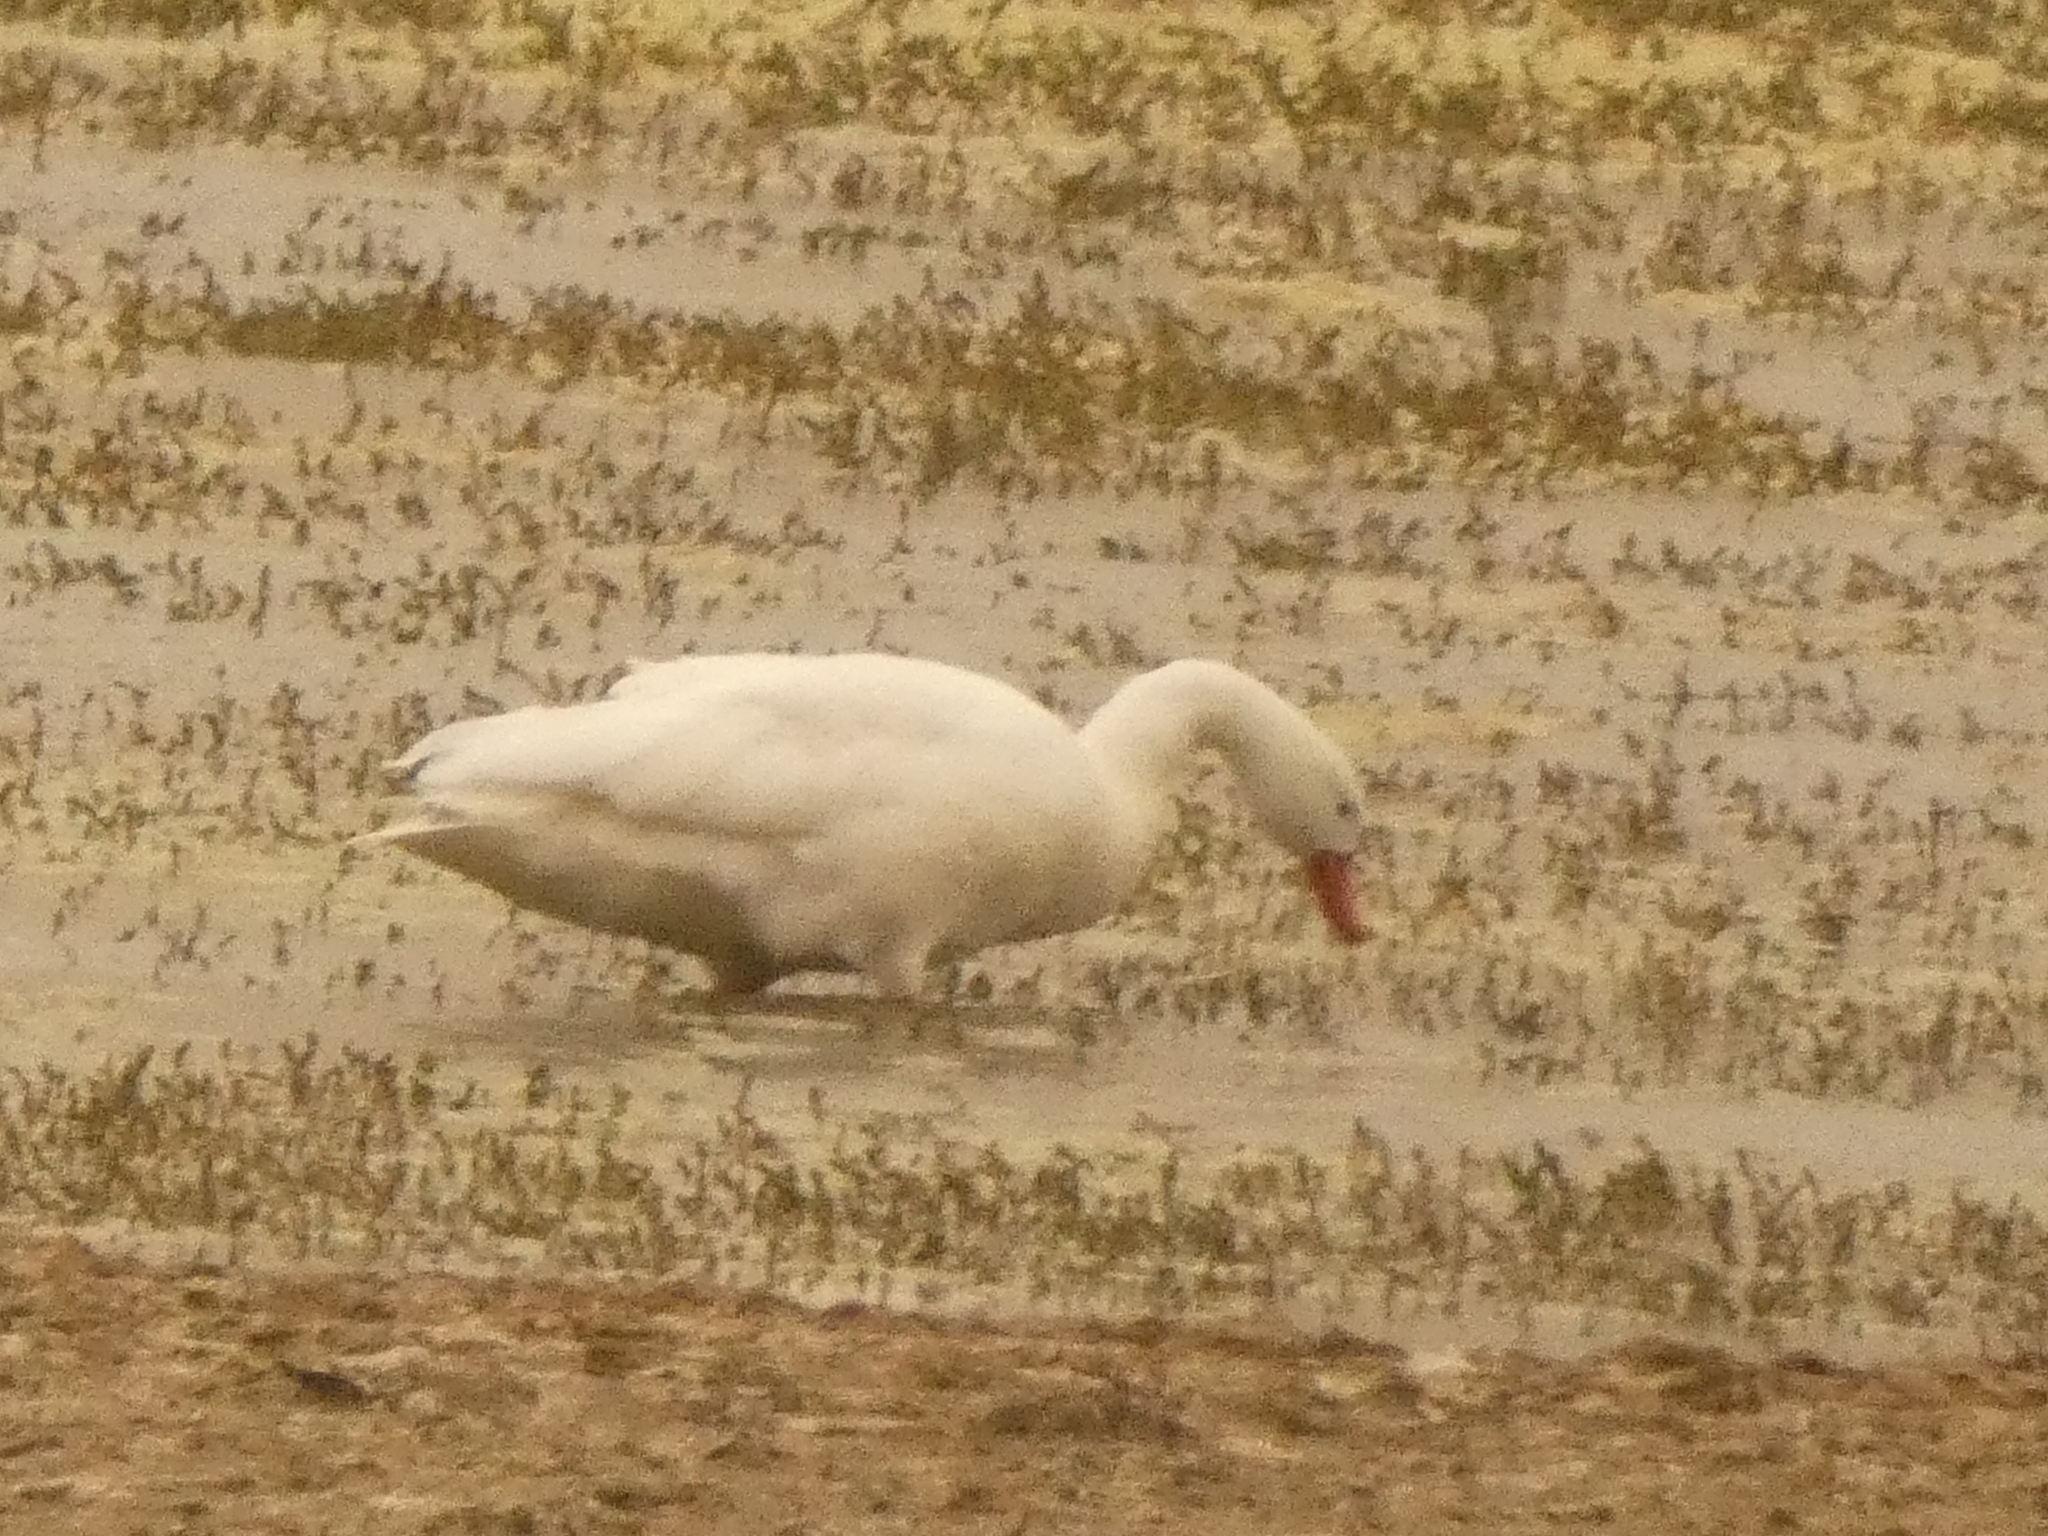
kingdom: Animalia
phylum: Chordata
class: Aves
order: Anseriformes
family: Anatidae
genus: Coscoroba
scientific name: Coscoroba coscoroba
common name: Coscoroba swan
